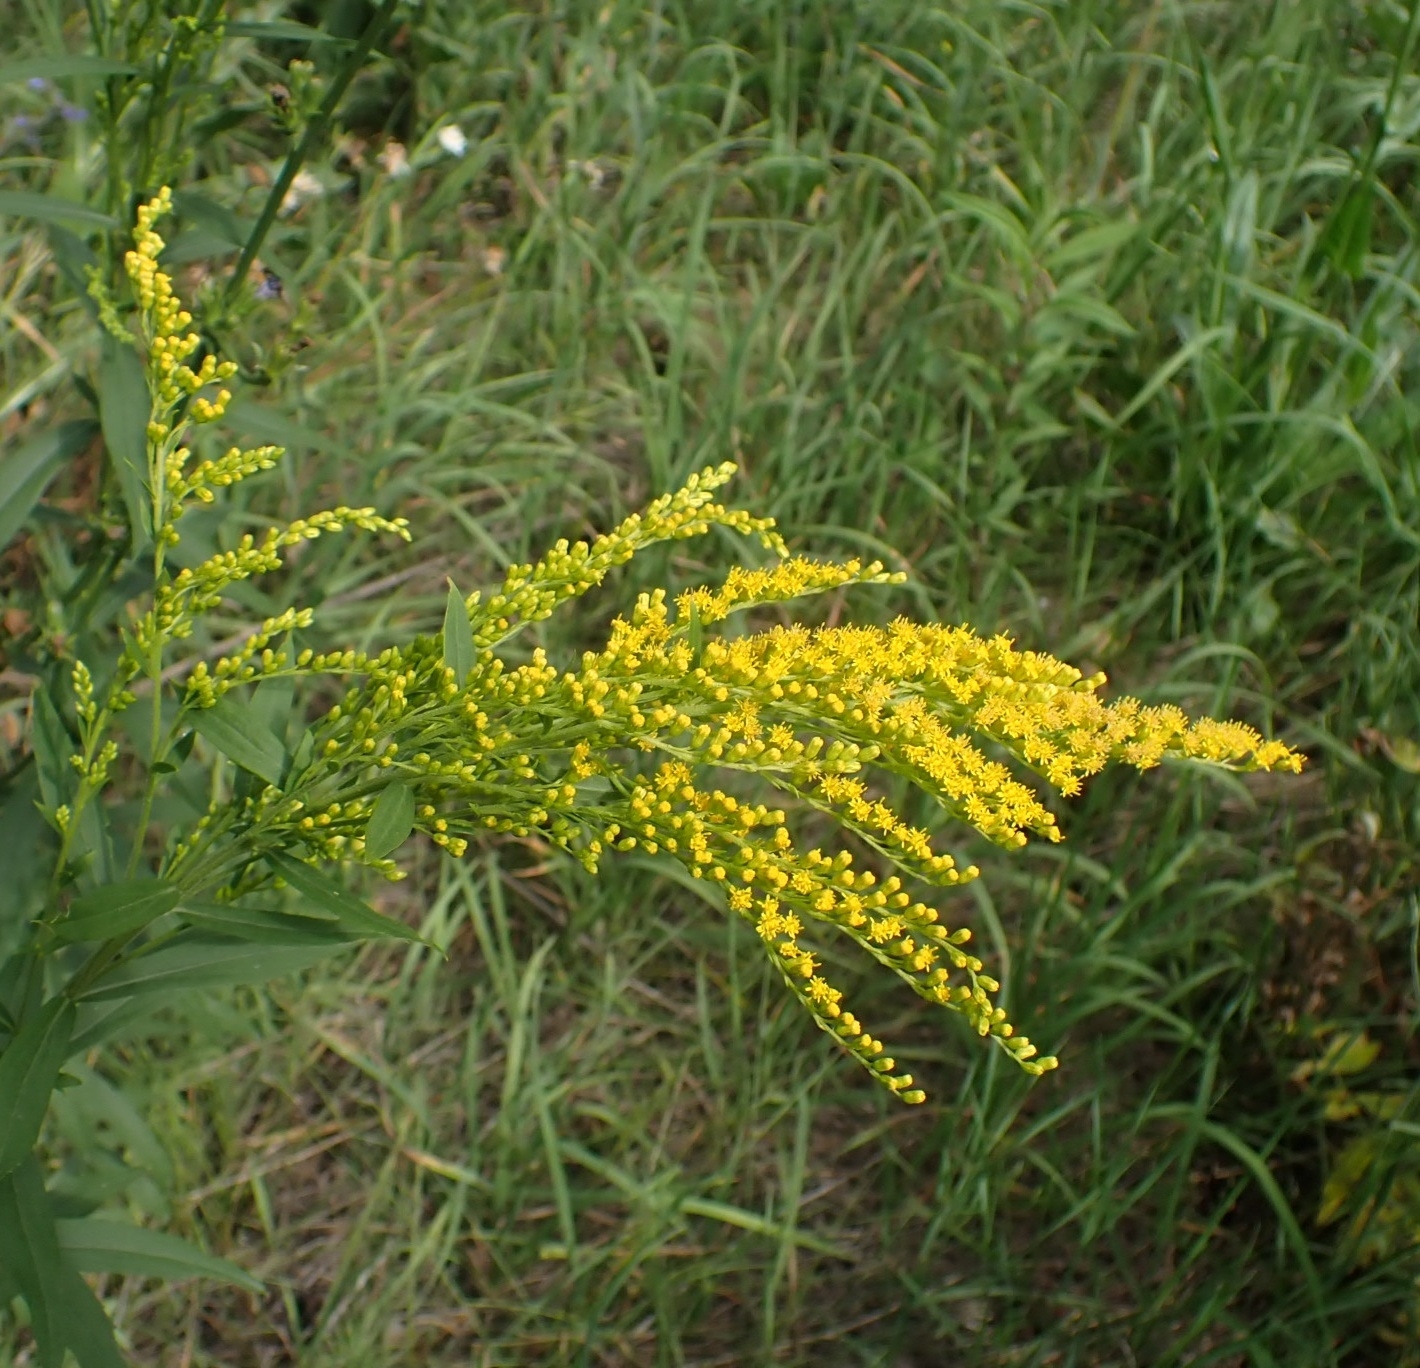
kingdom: Plantae
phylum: Tracheophyta
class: Magnoliopsida
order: Asterales
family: Asteraceae
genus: Solidago
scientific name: Solidago canadensis
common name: Canada goldenrod
